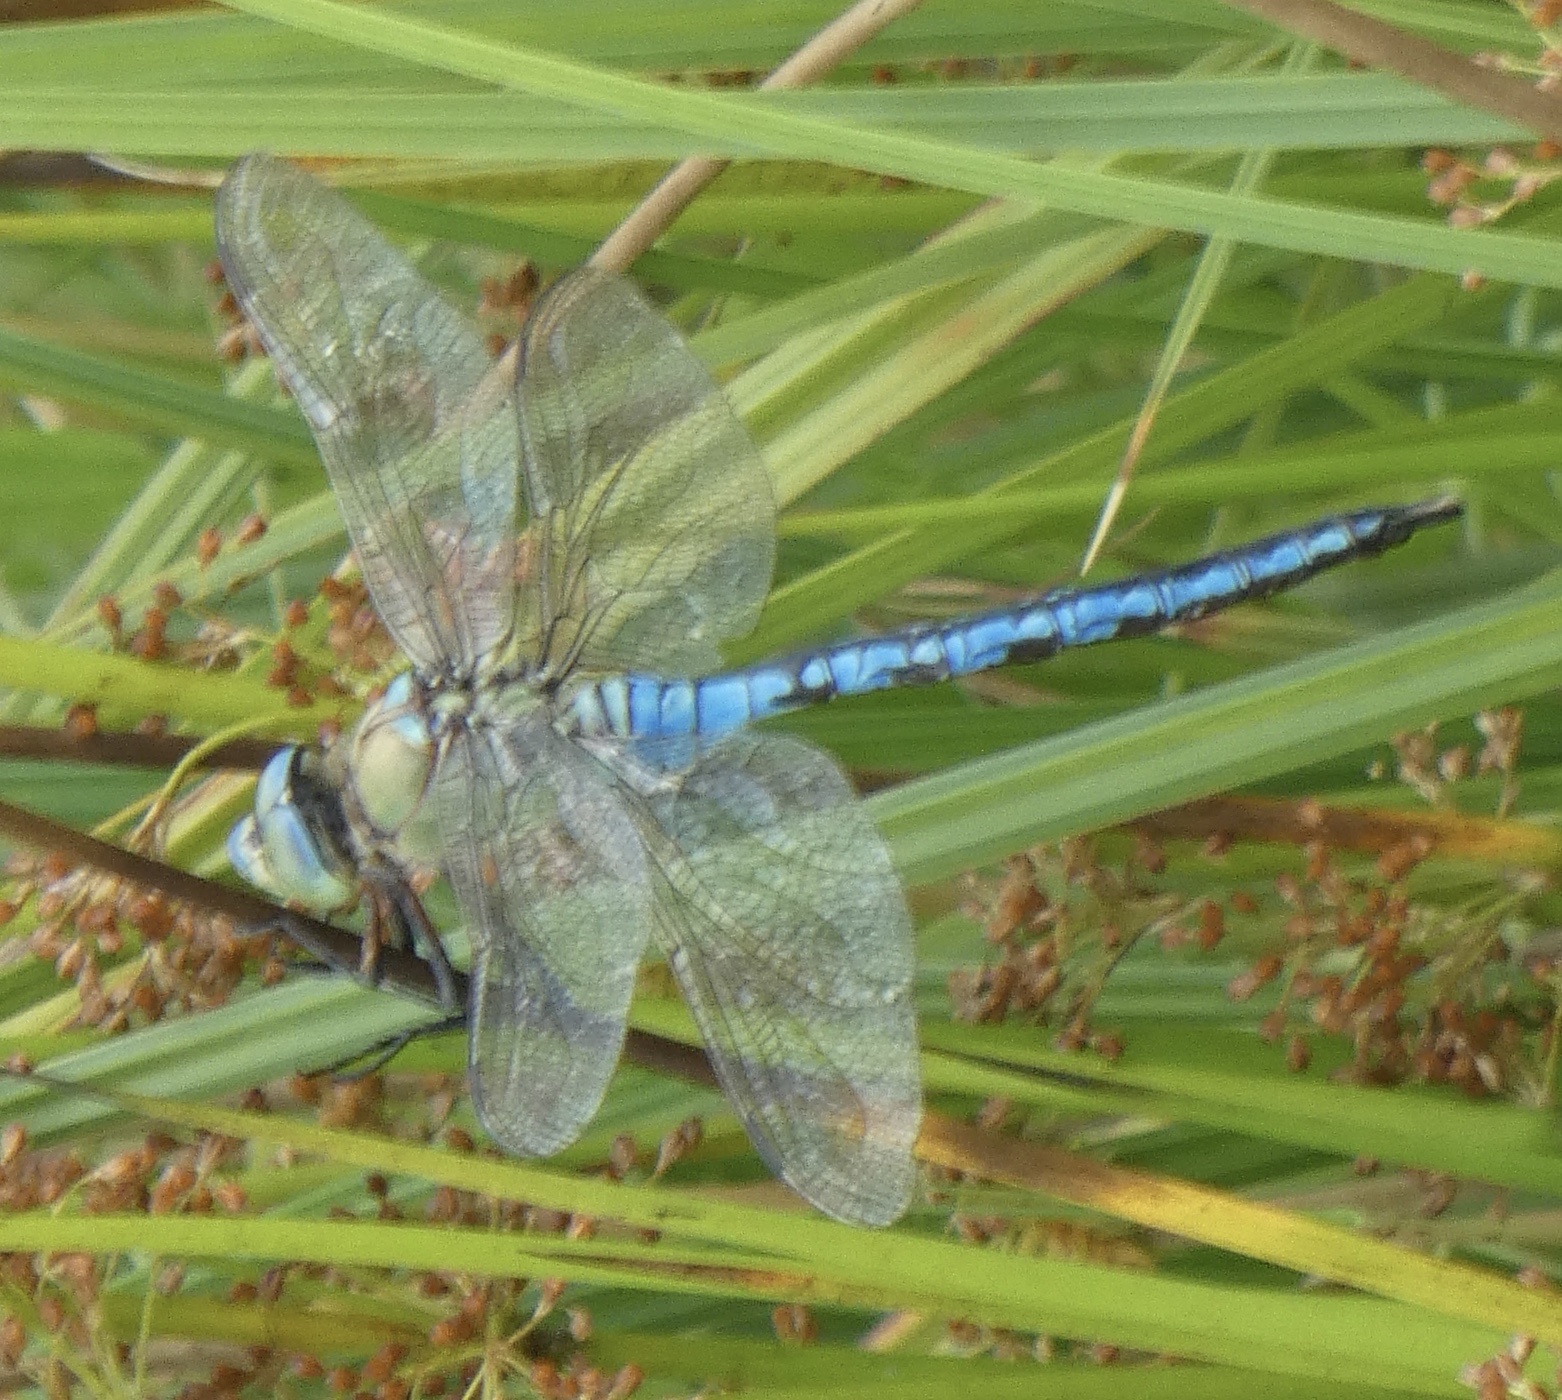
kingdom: Animalia
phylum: Arthropoda
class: Insecta
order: Odonata
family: Aeshnidae
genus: Anax
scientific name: Anax imperator
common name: Emperor dragonfly
